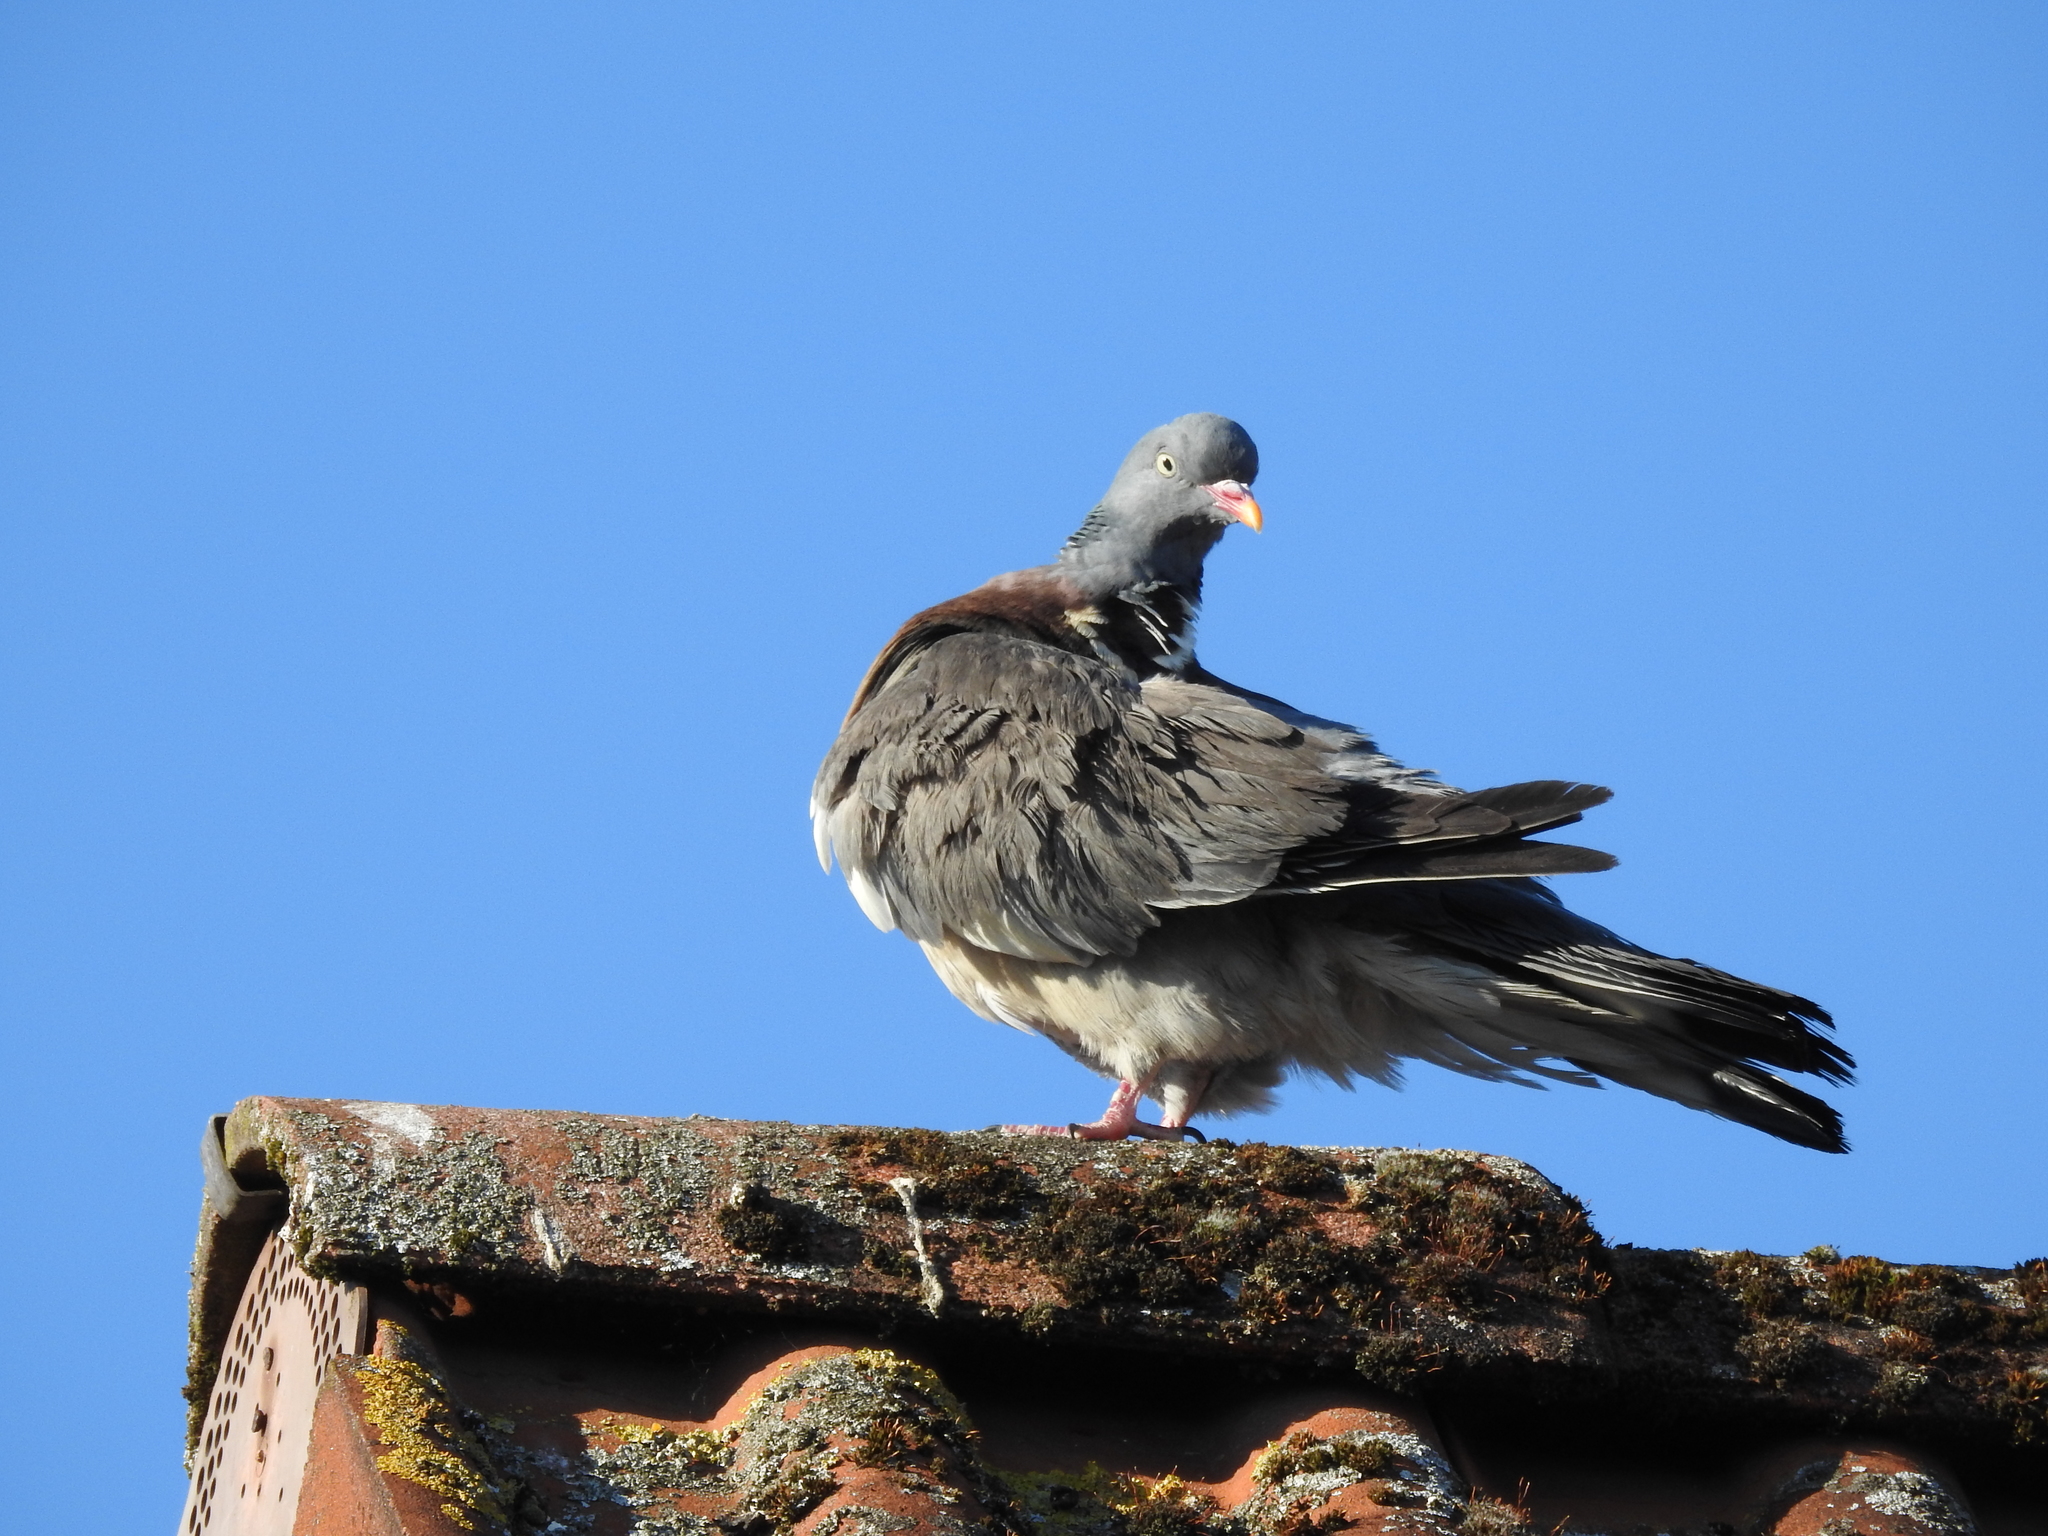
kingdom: Animalia
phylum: Chordata
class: Aves
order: Columbiformes
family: Columbidae
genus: Columba
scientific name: Columba palumbus
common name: Common wood pigeon
